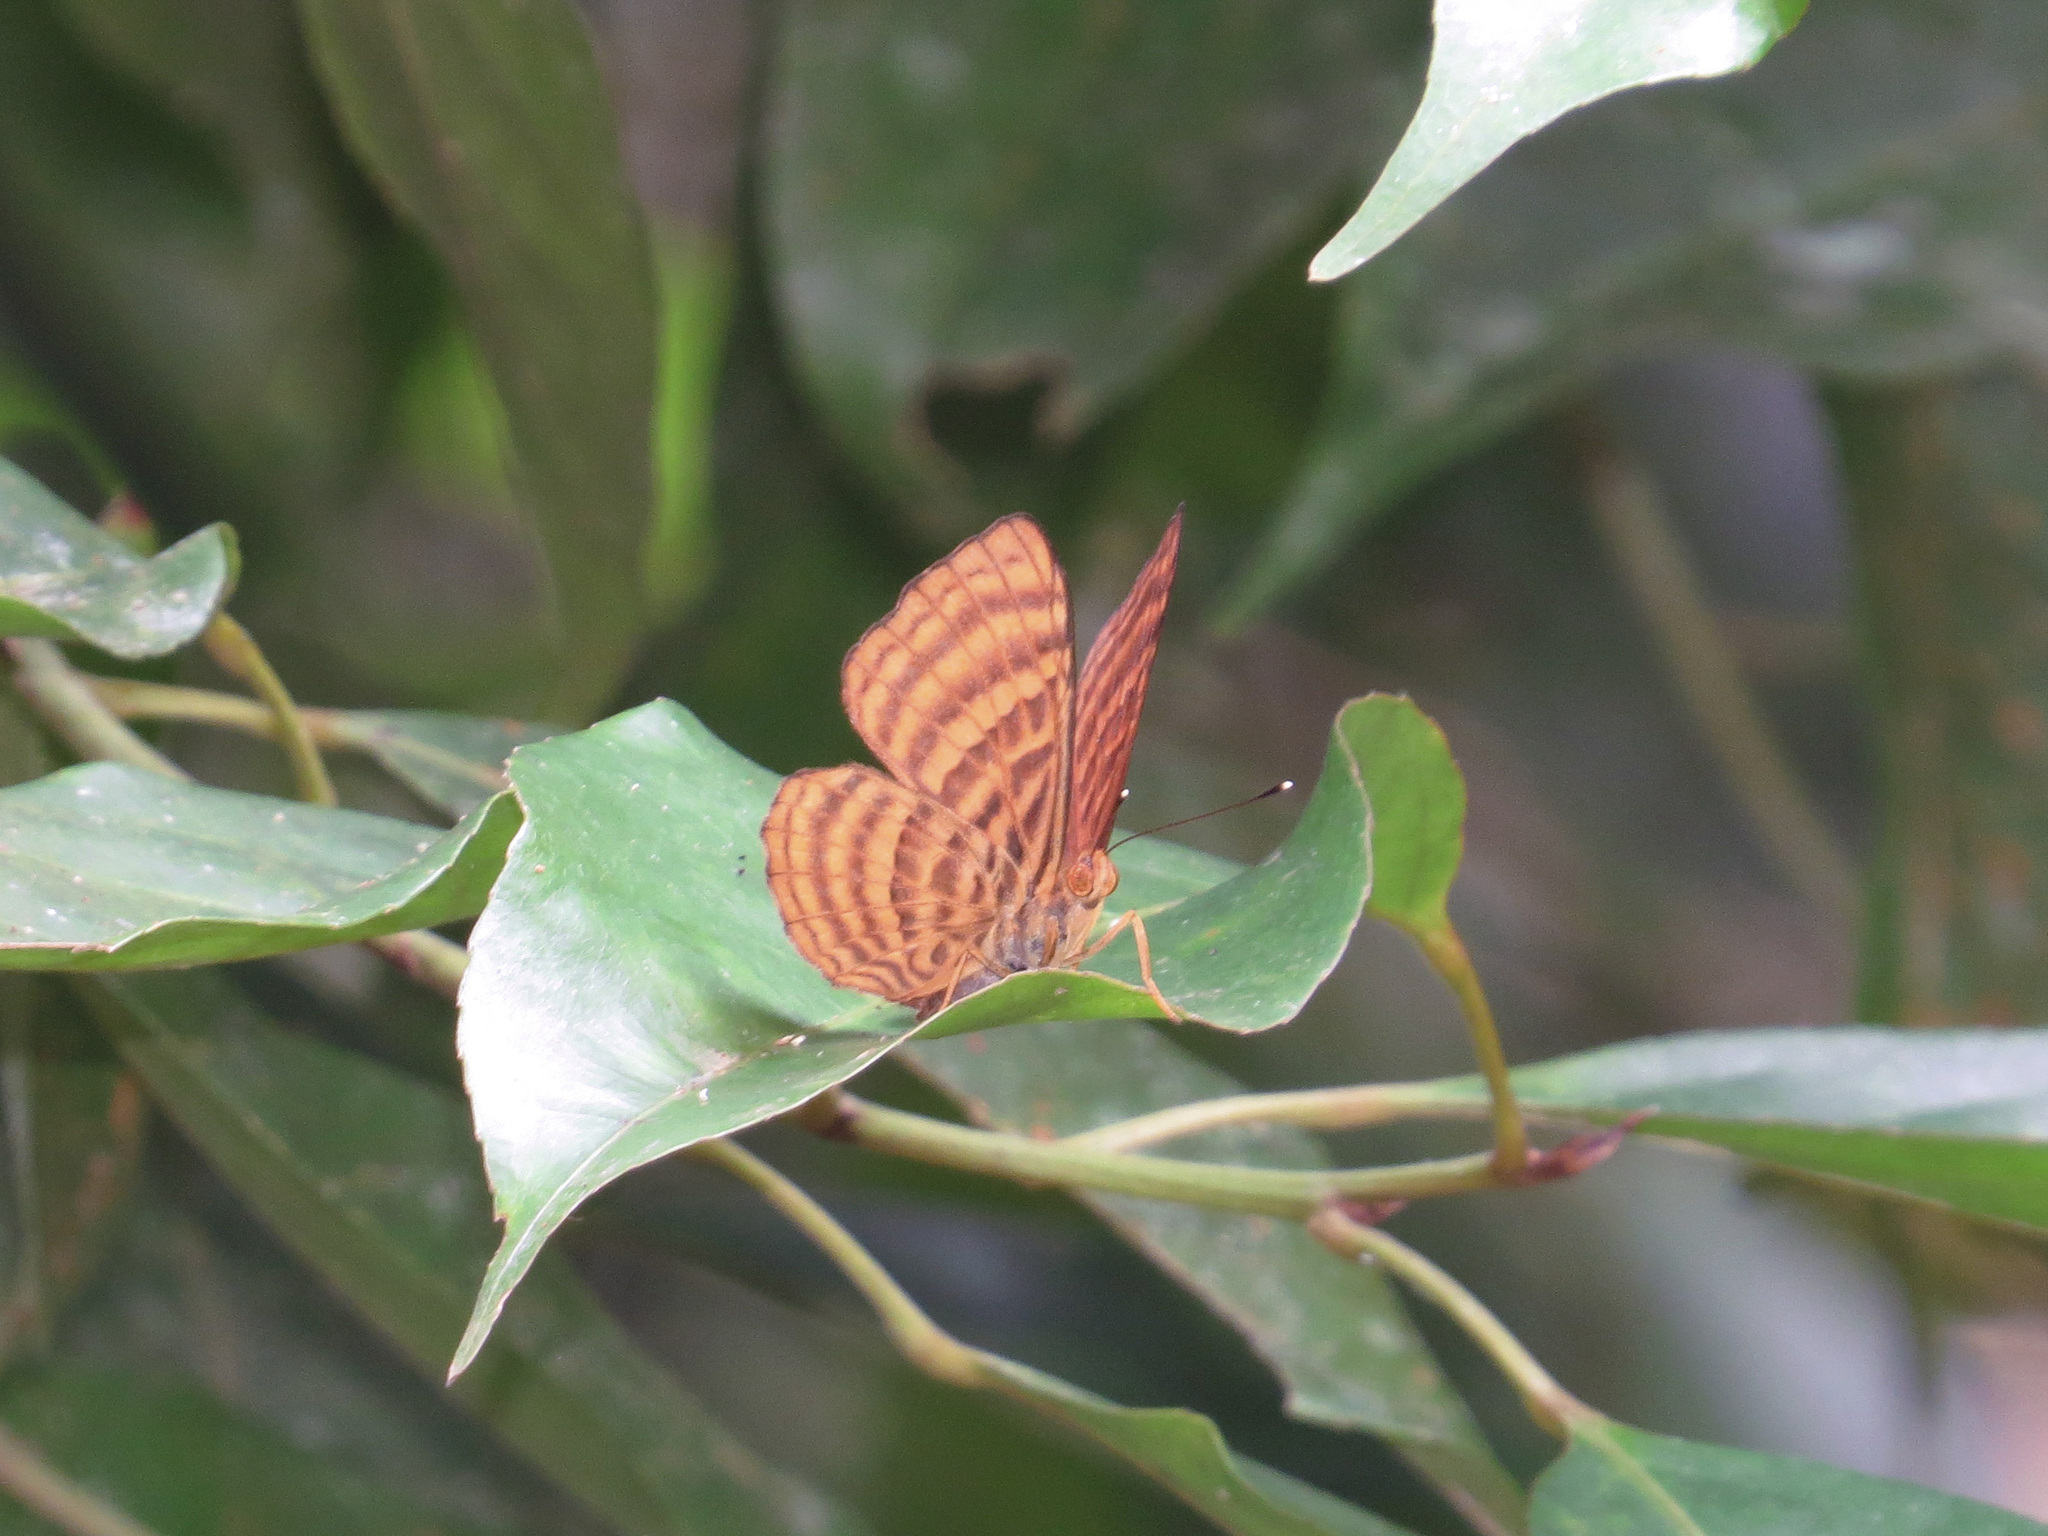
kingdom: Animalia
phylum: Arthropoda
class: Insecta
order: Lepidoptera
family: Riodinidae
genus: Zemeros
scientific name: Zemeros emesoides
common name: Malay punchinello
